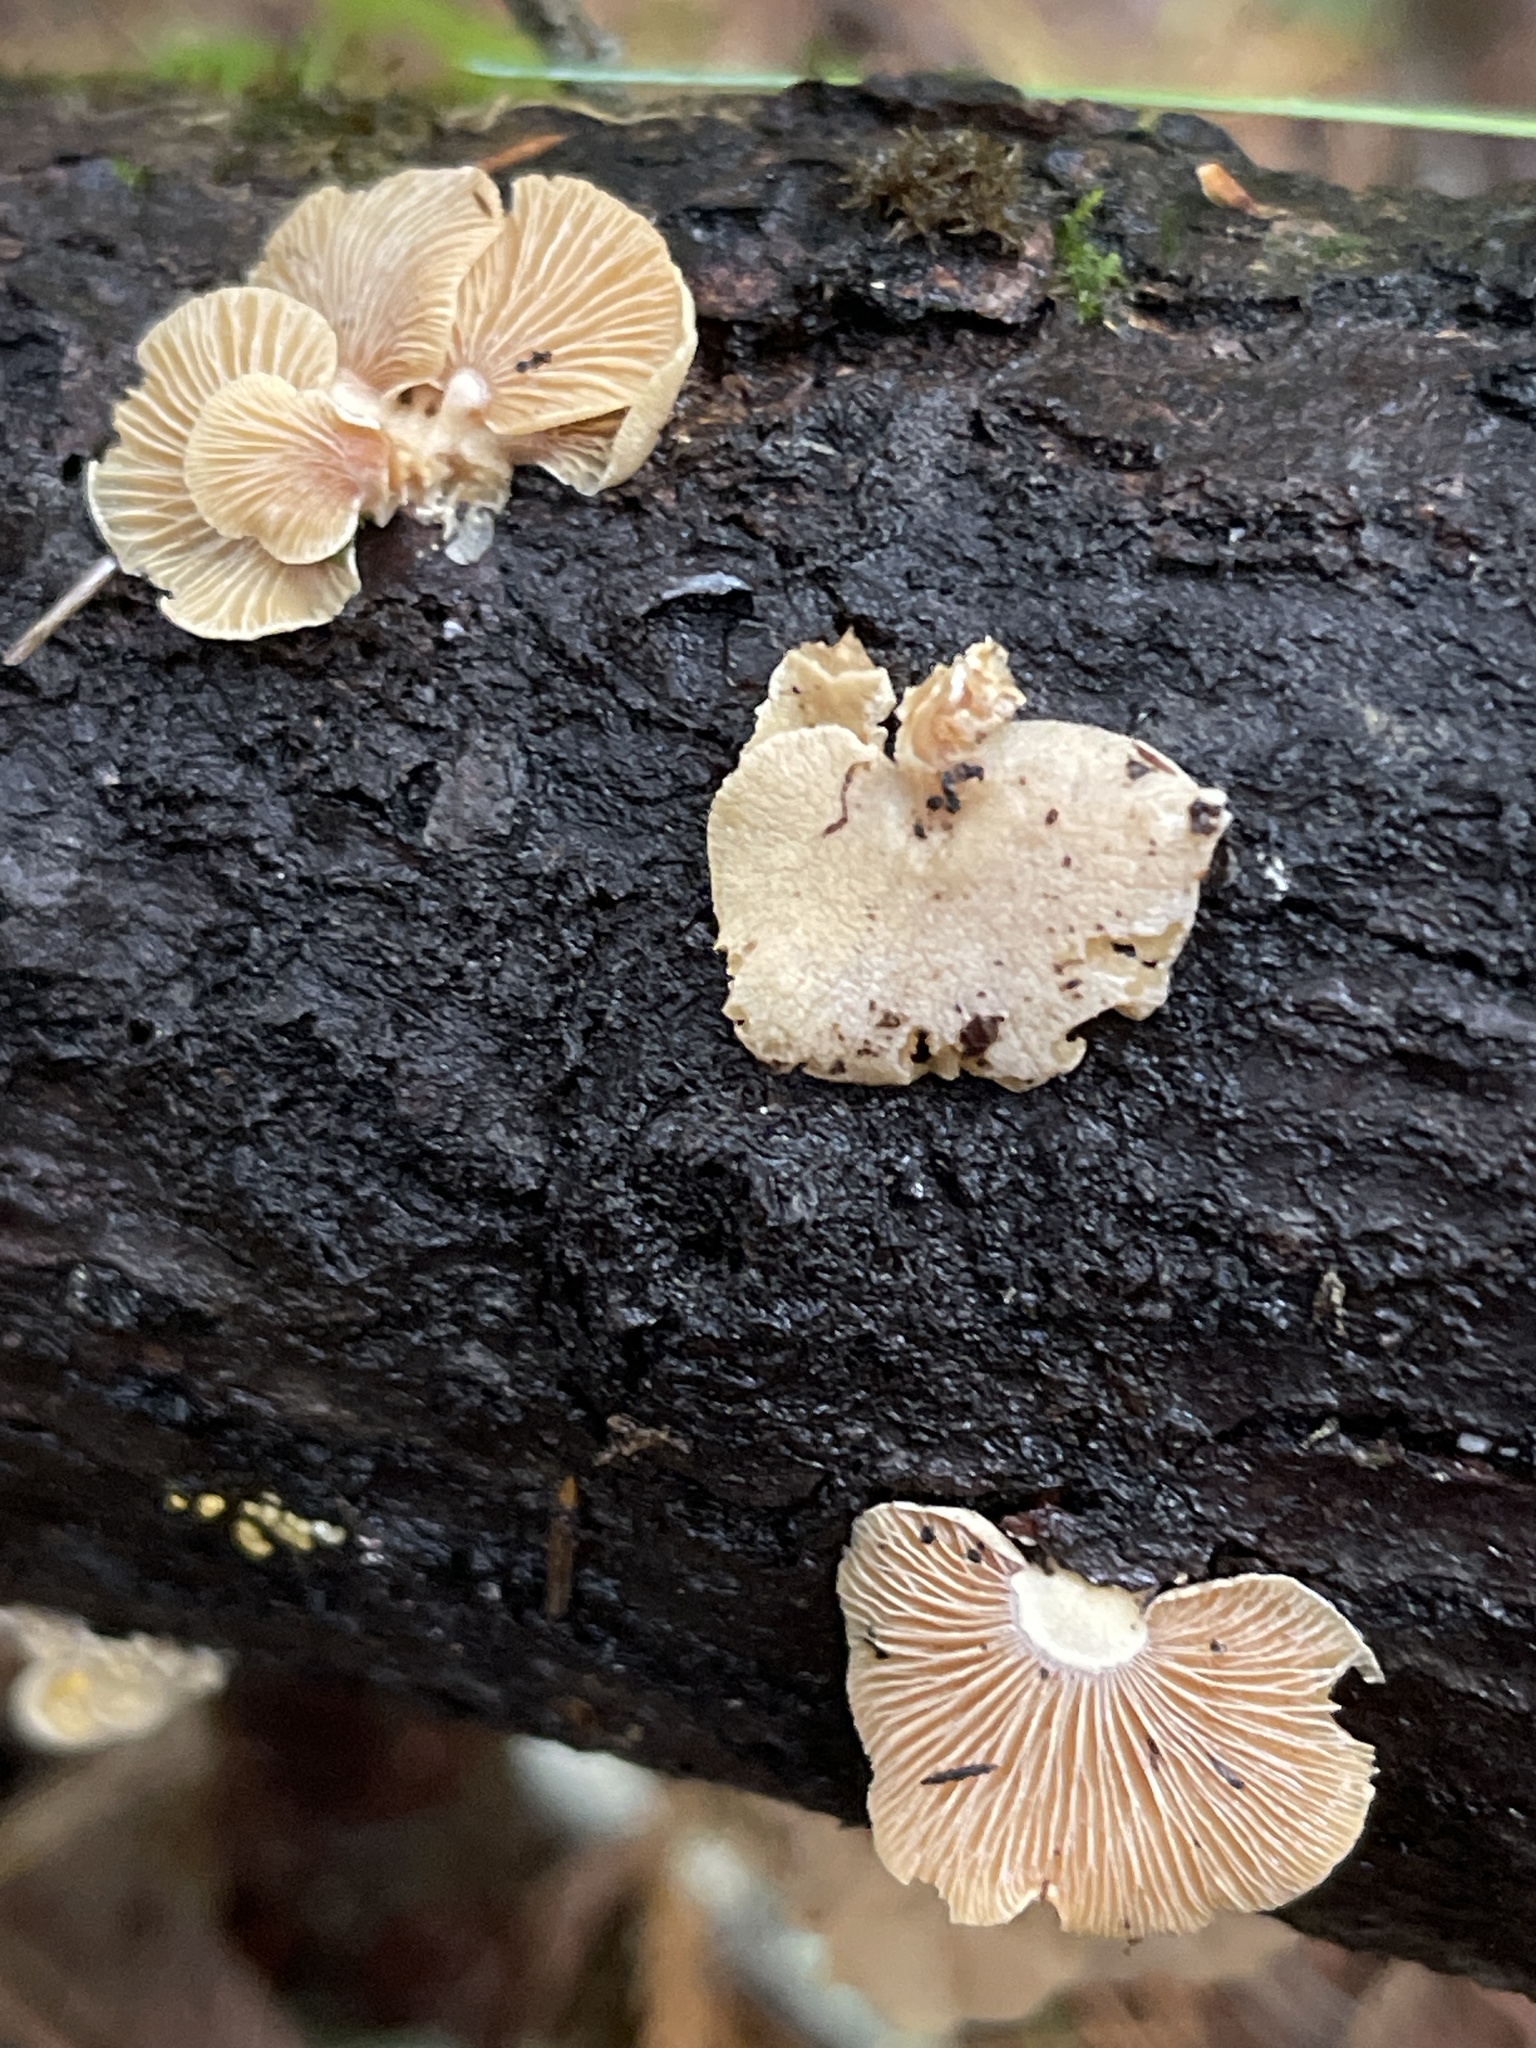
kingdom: Fungi
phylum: Basidiomycota
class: Agaricomycetes
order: Agaricales
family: Mycenaceae
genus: Panellus
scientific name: Panellus stipticus
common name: Bitter oysterling
